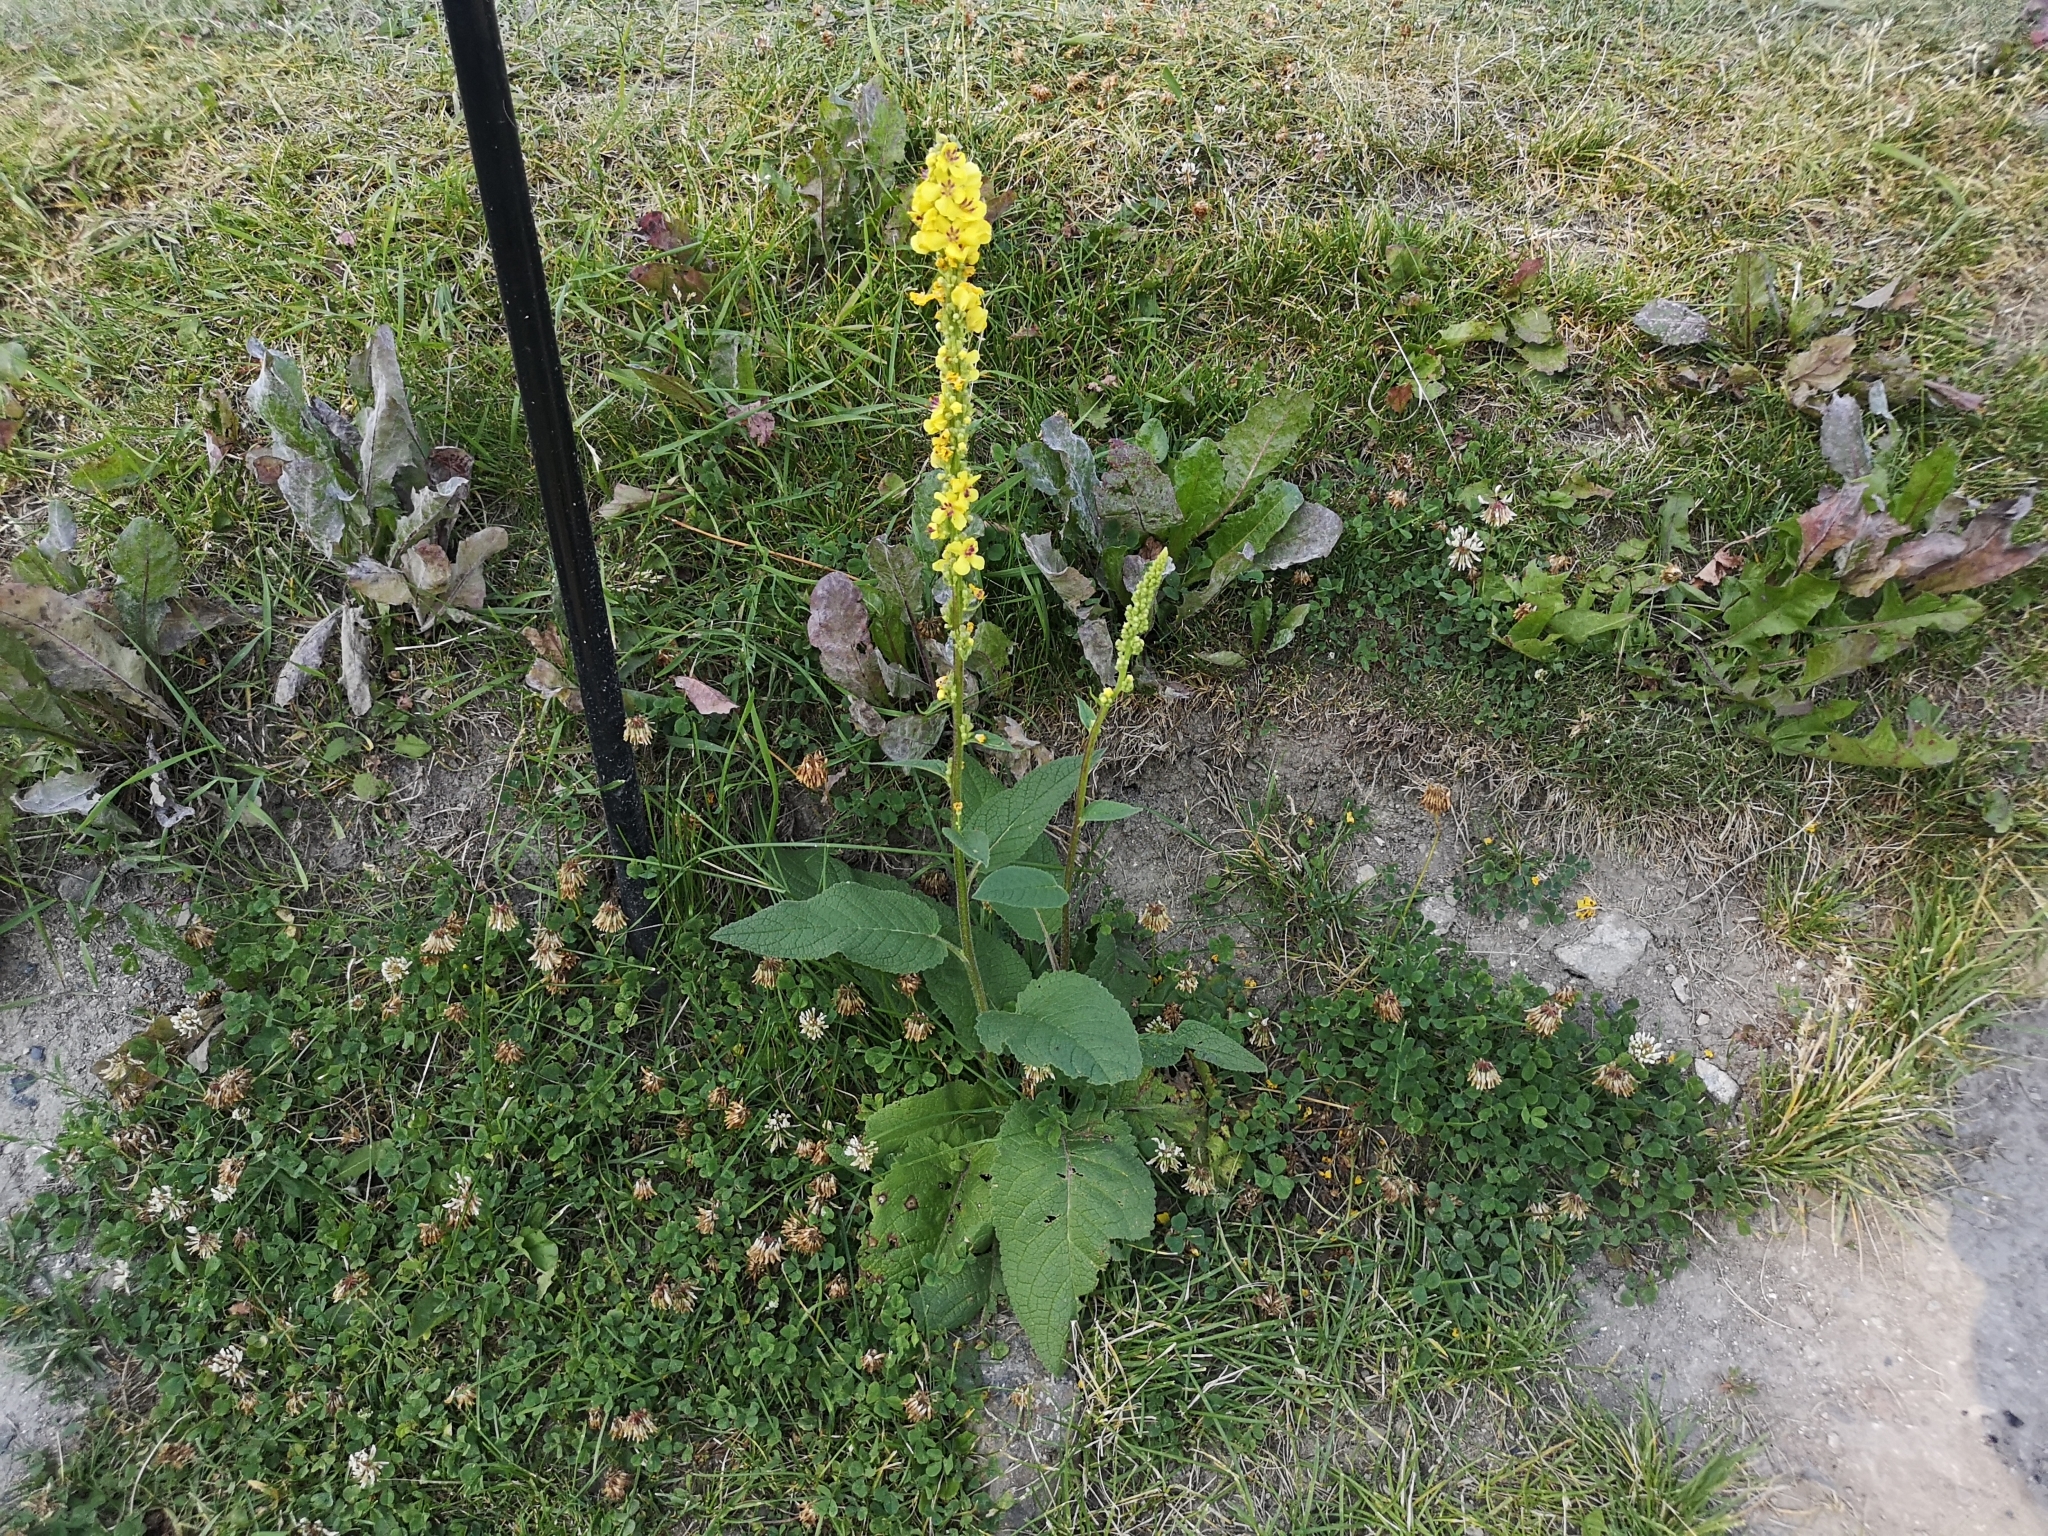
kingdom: Plantae
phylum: Tracheophyta
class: Magnoliopsida
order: Lamiales
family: Scrophulariaceae
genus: Verbascum
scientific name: Verbascum nigrum
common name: Dark mullein
